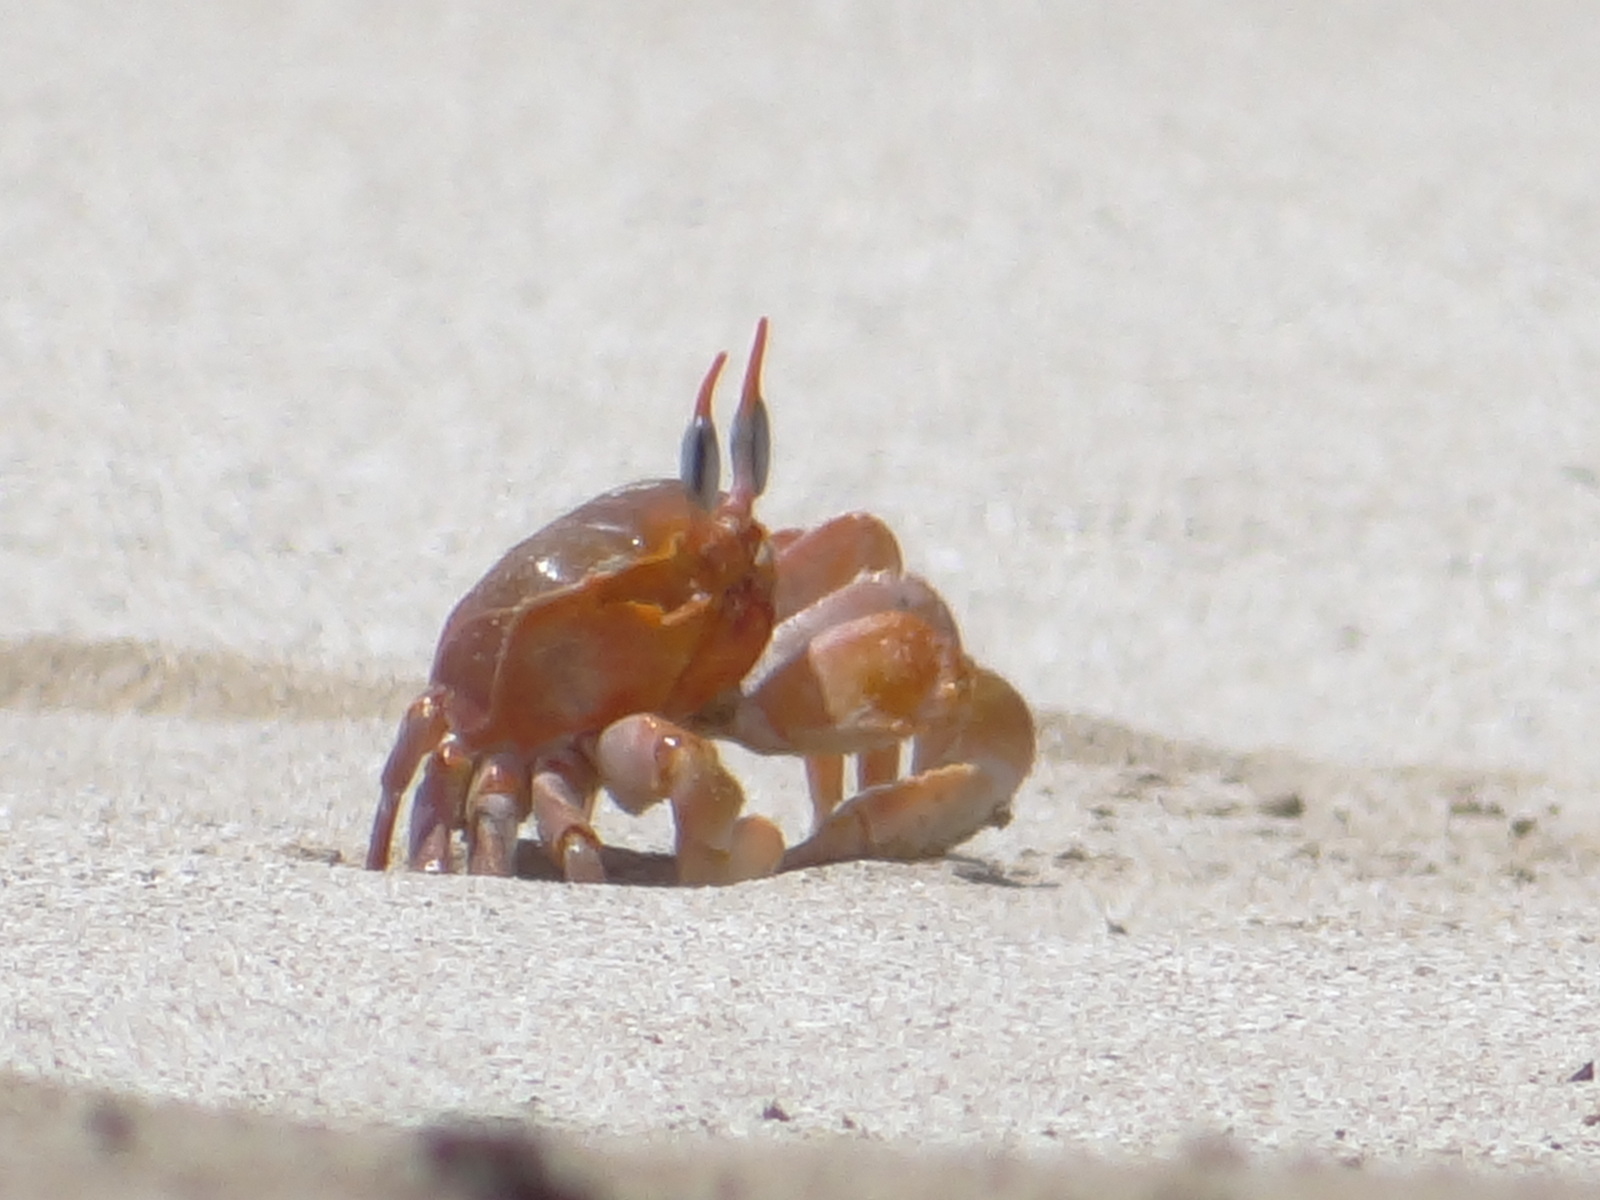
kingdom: Animalia
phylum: Arthropoda
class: Malacostraca
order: Decapoda
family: Ocypodidae
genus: Ocypode
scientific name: Ocypode gaudichaudii
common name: Pacific ghost crab
